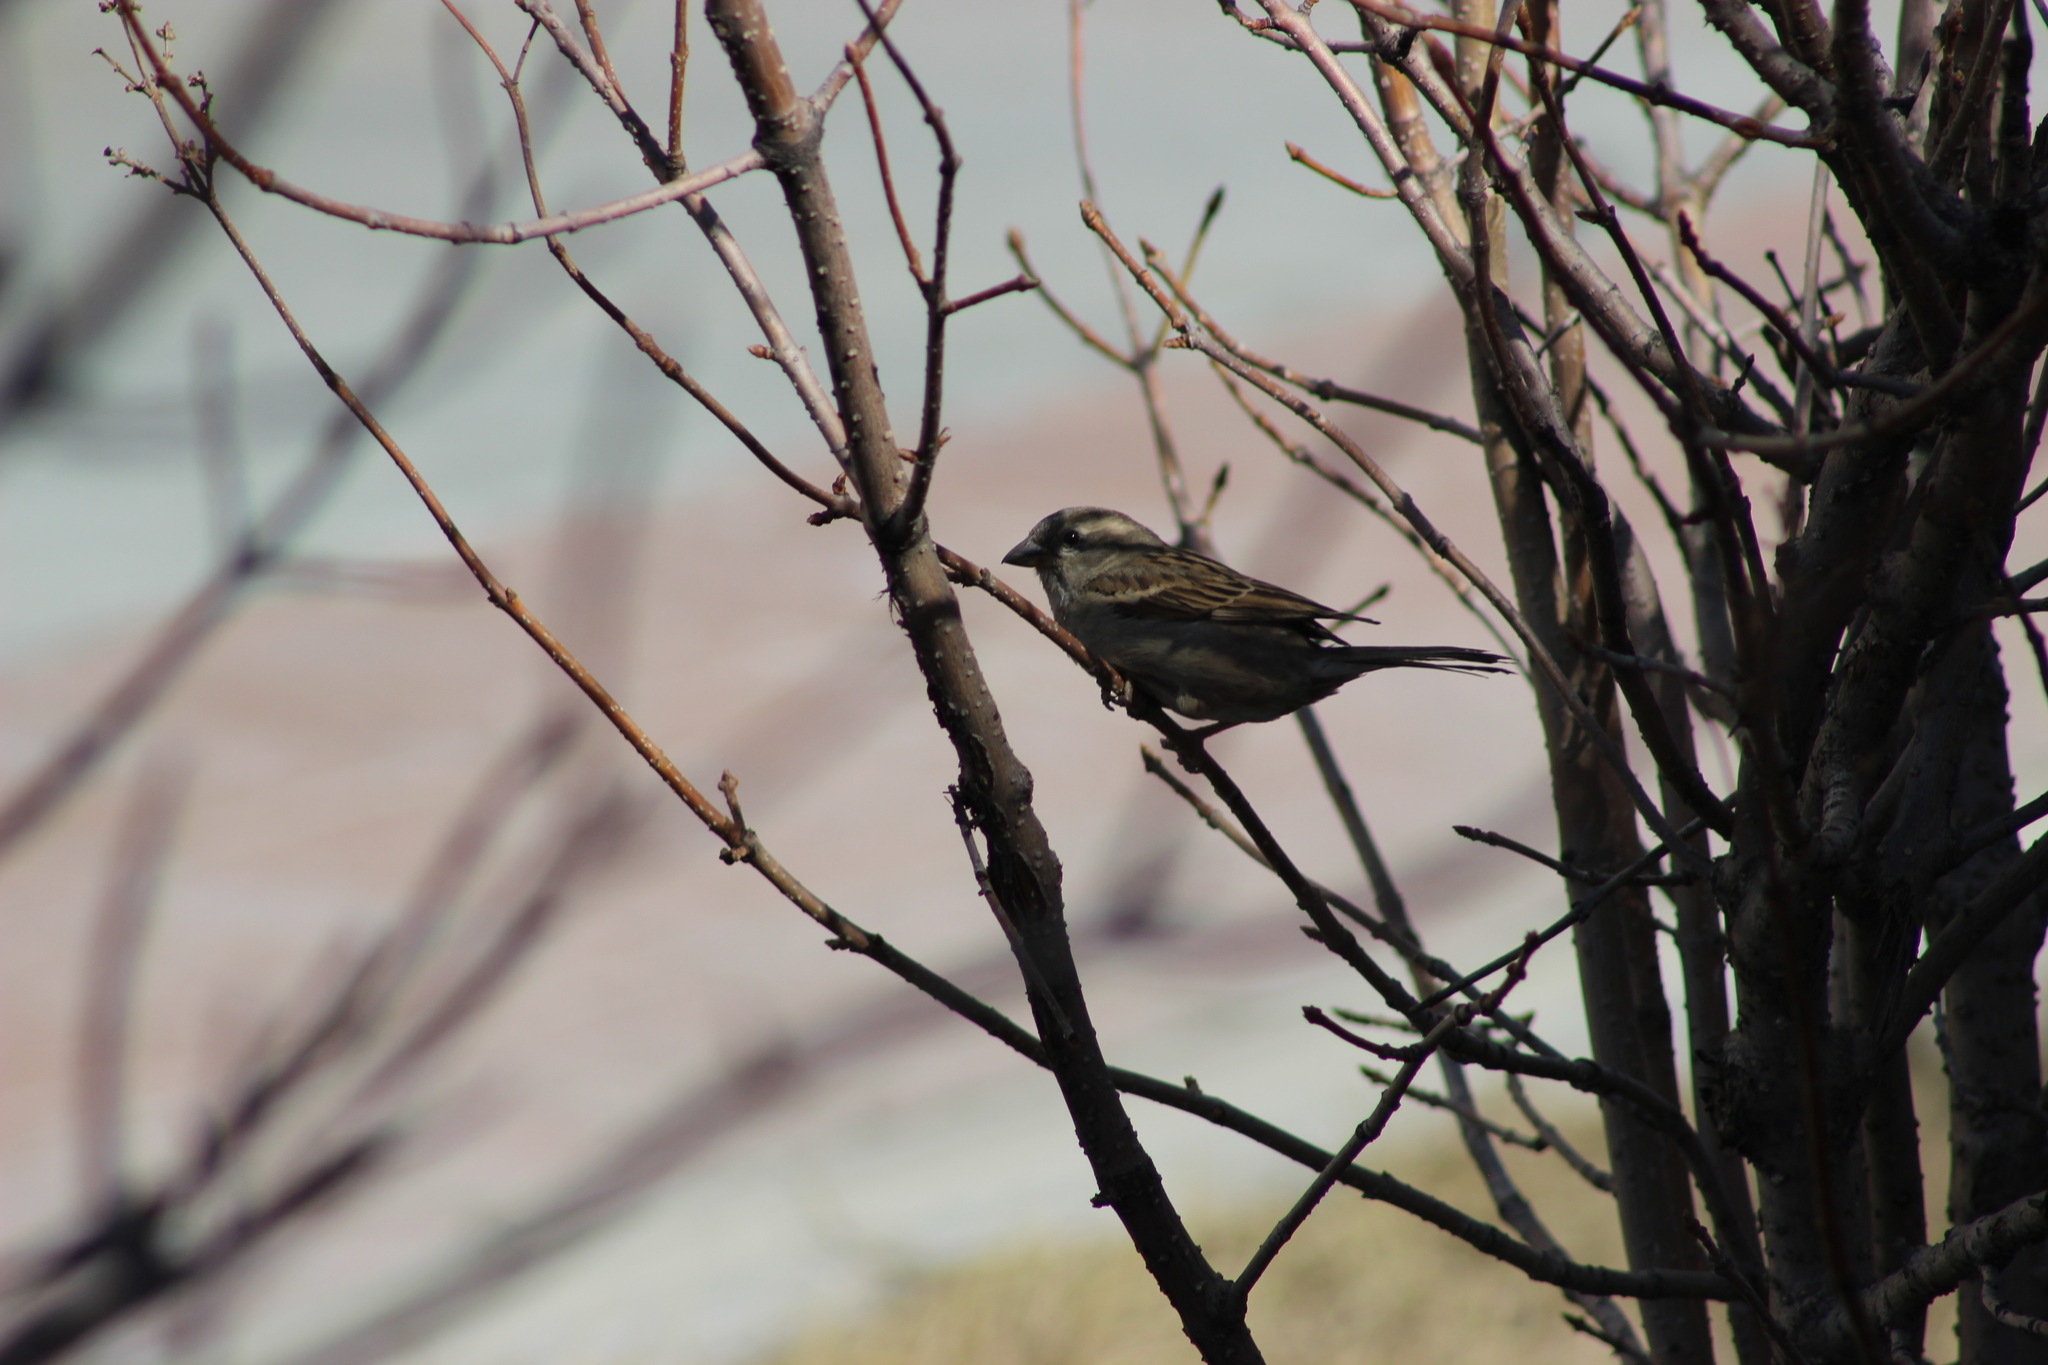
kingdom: Animalia
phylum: Chordata
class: Aves
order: Passeriformes
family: Passeridae
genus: Passer
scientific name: Passer domesticus
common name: House sparrow
